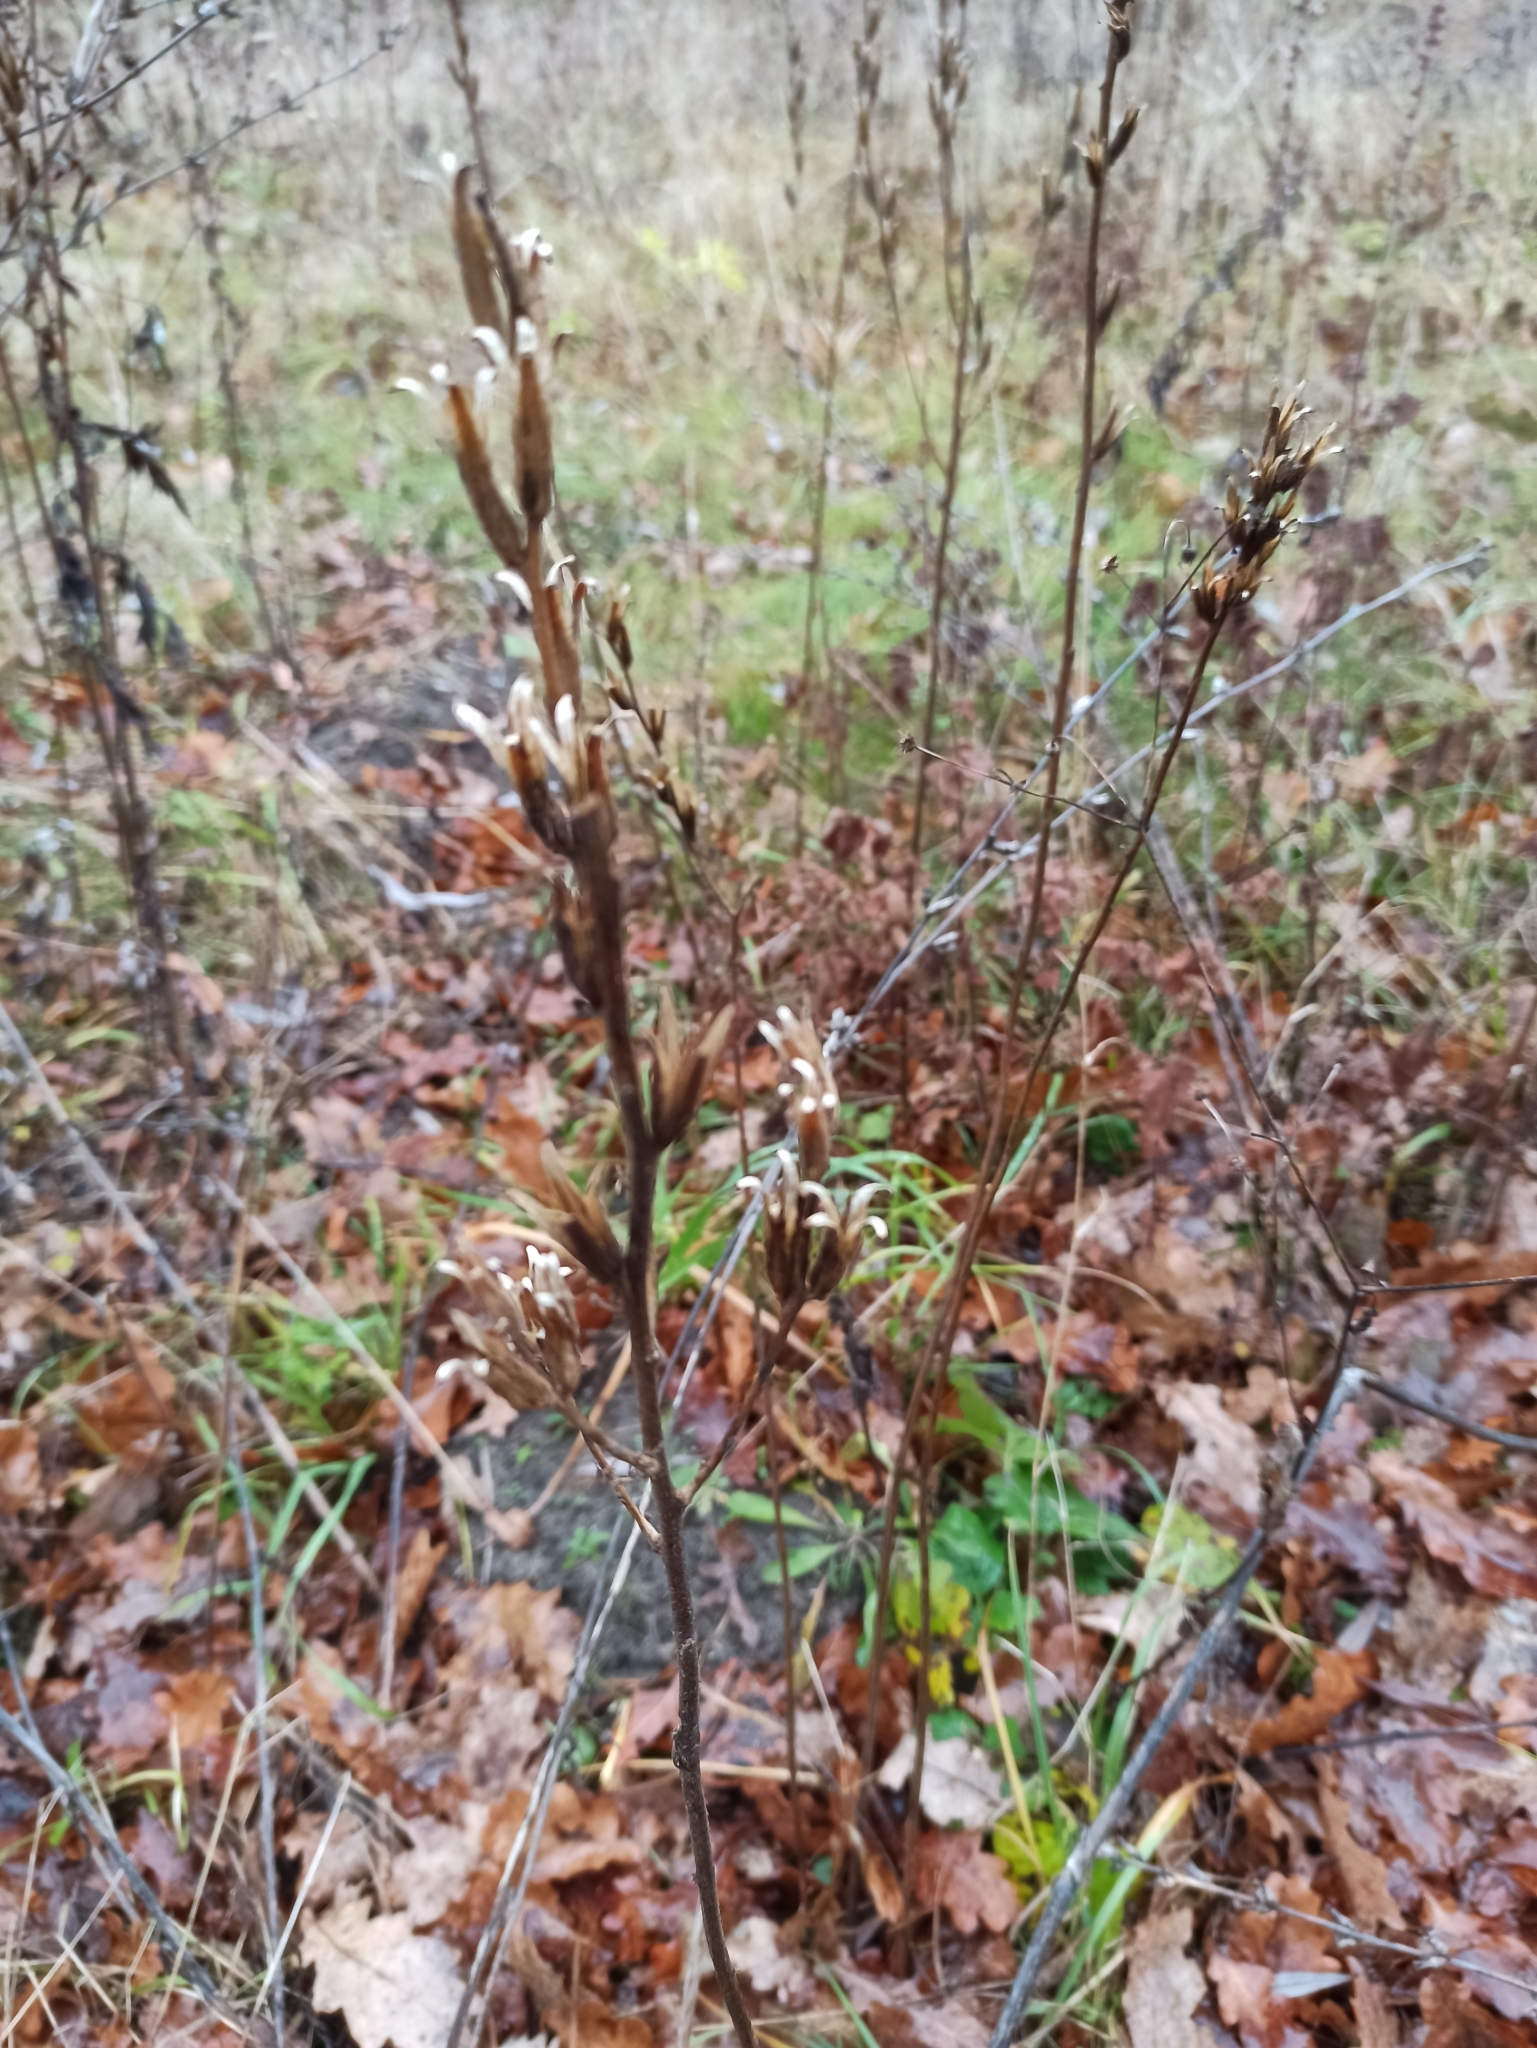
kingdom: Plantae
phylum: Tracheophyta
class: Magnoliopsida
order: Myrtales
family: Onagraceae
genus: Oenothera
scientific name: Oenothera
